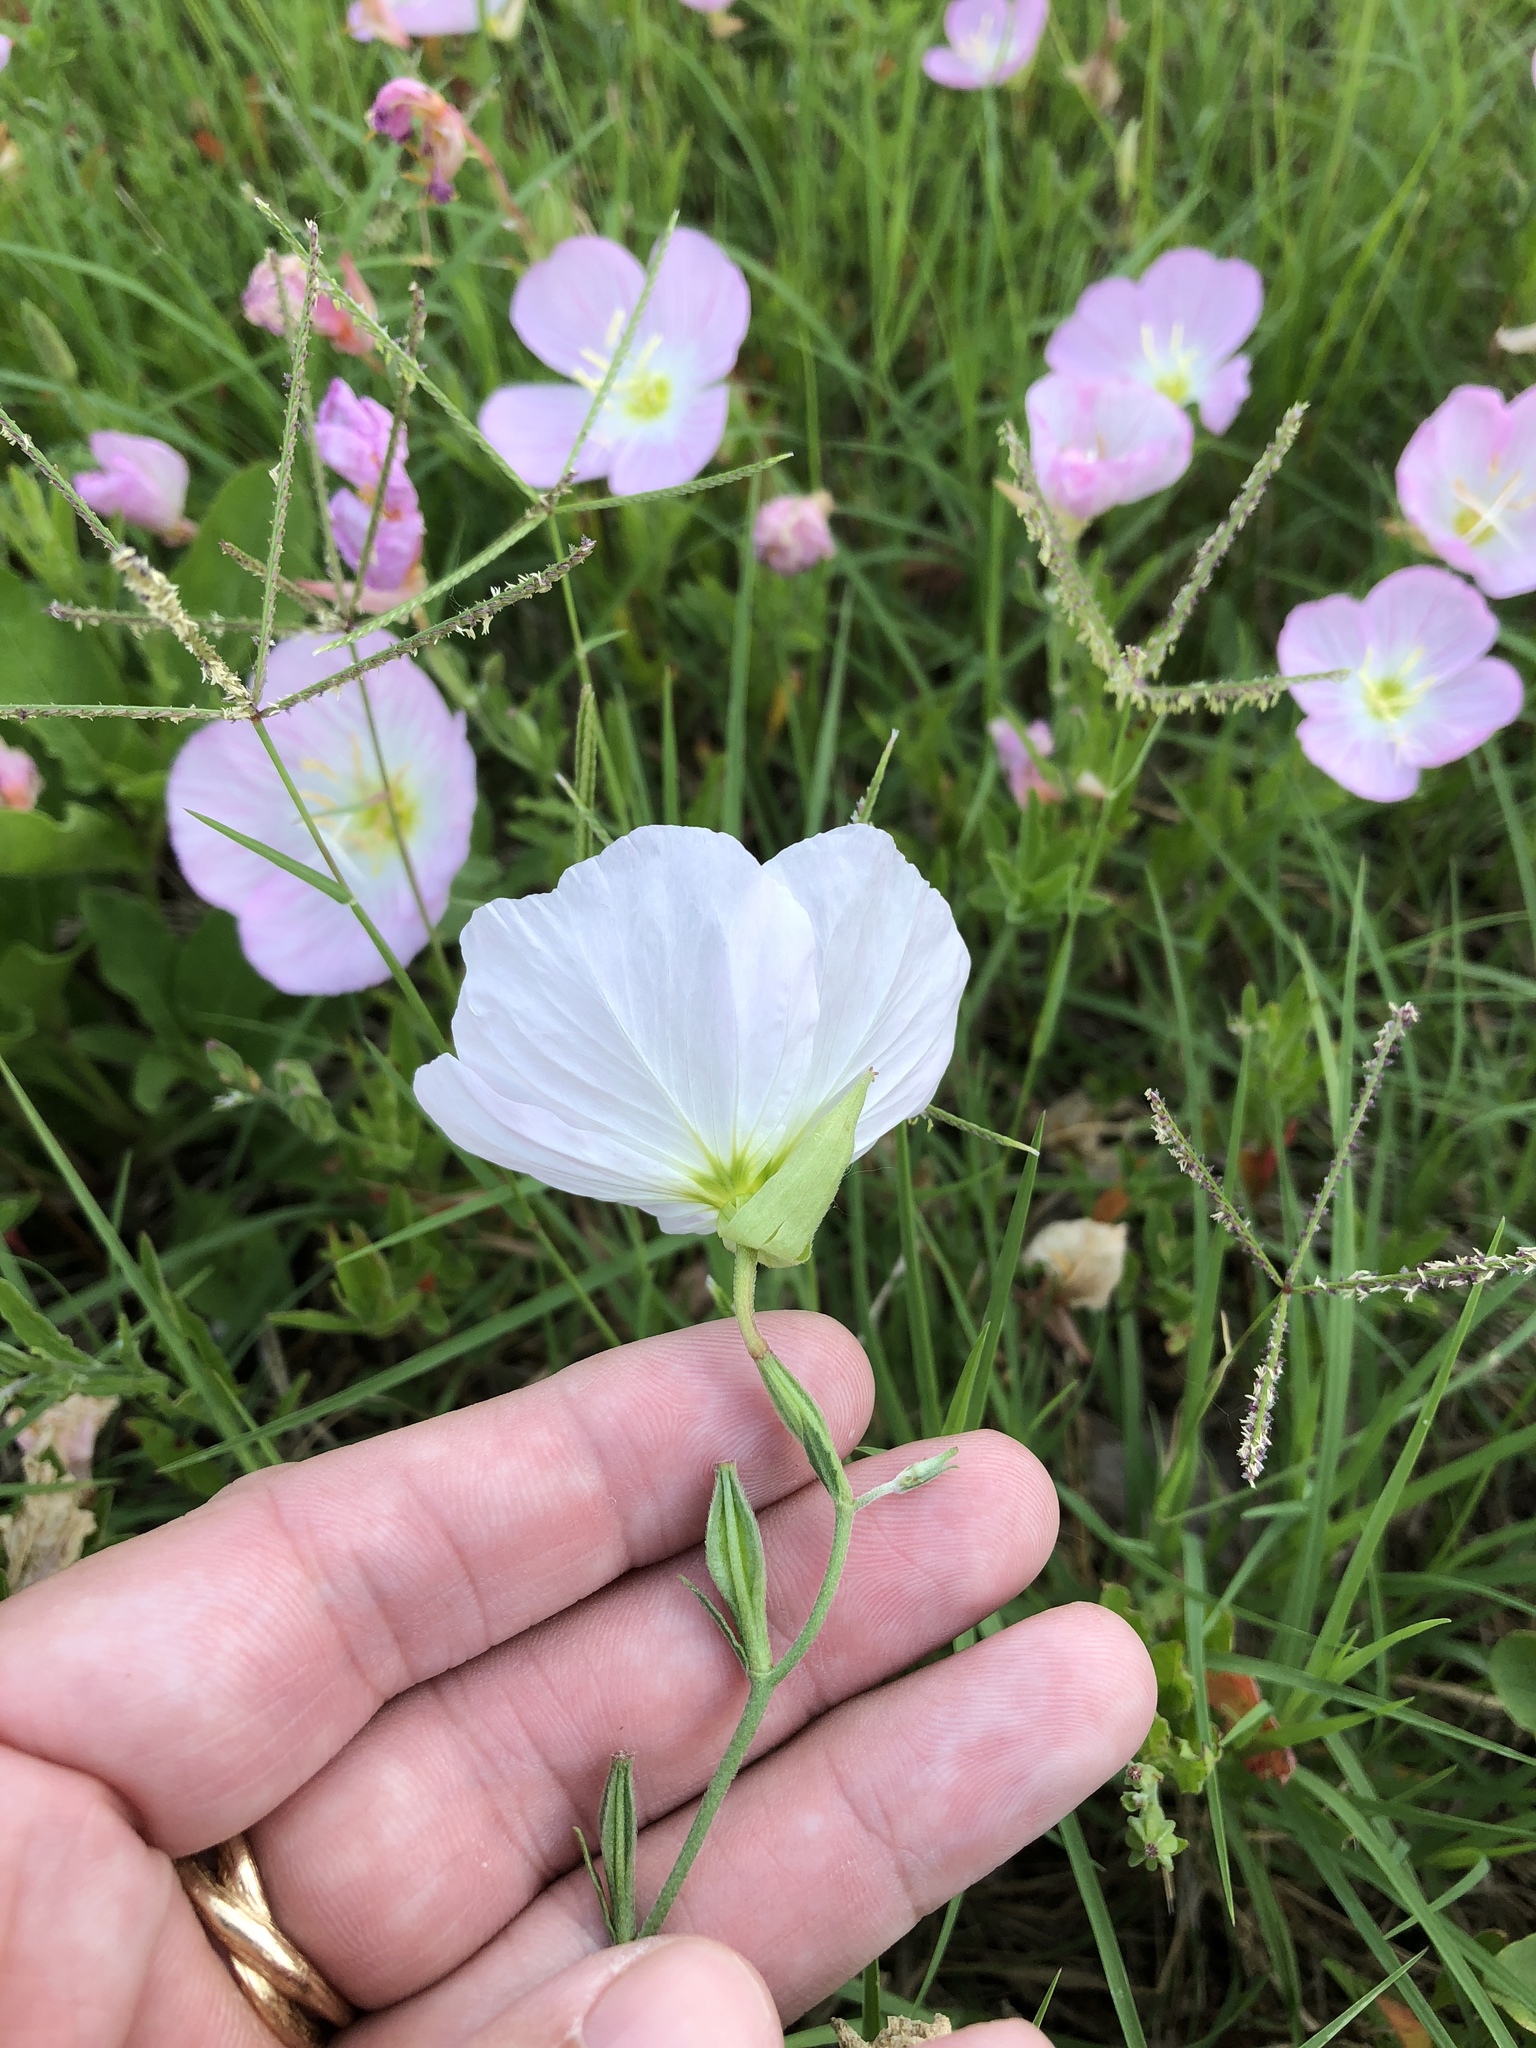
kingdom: Plantae
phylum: Tracheophyta
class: Magnoliopsida
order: Myrtales
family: Onagraceae
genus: Oenothera
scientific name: Oenothera speciosa
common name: White evening-primrose
